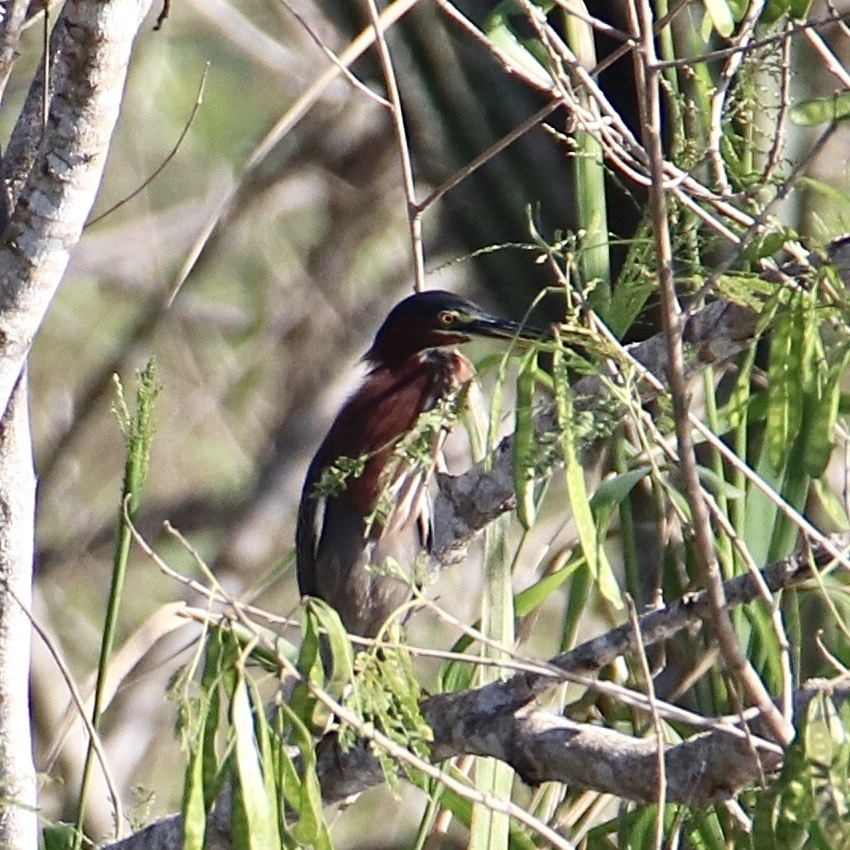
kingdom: Animalia
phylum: Chordata
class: Aves
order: Pelecaniformes
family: Ardeidae
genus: Butorides
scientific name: Butorides virescens
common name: Green heron
